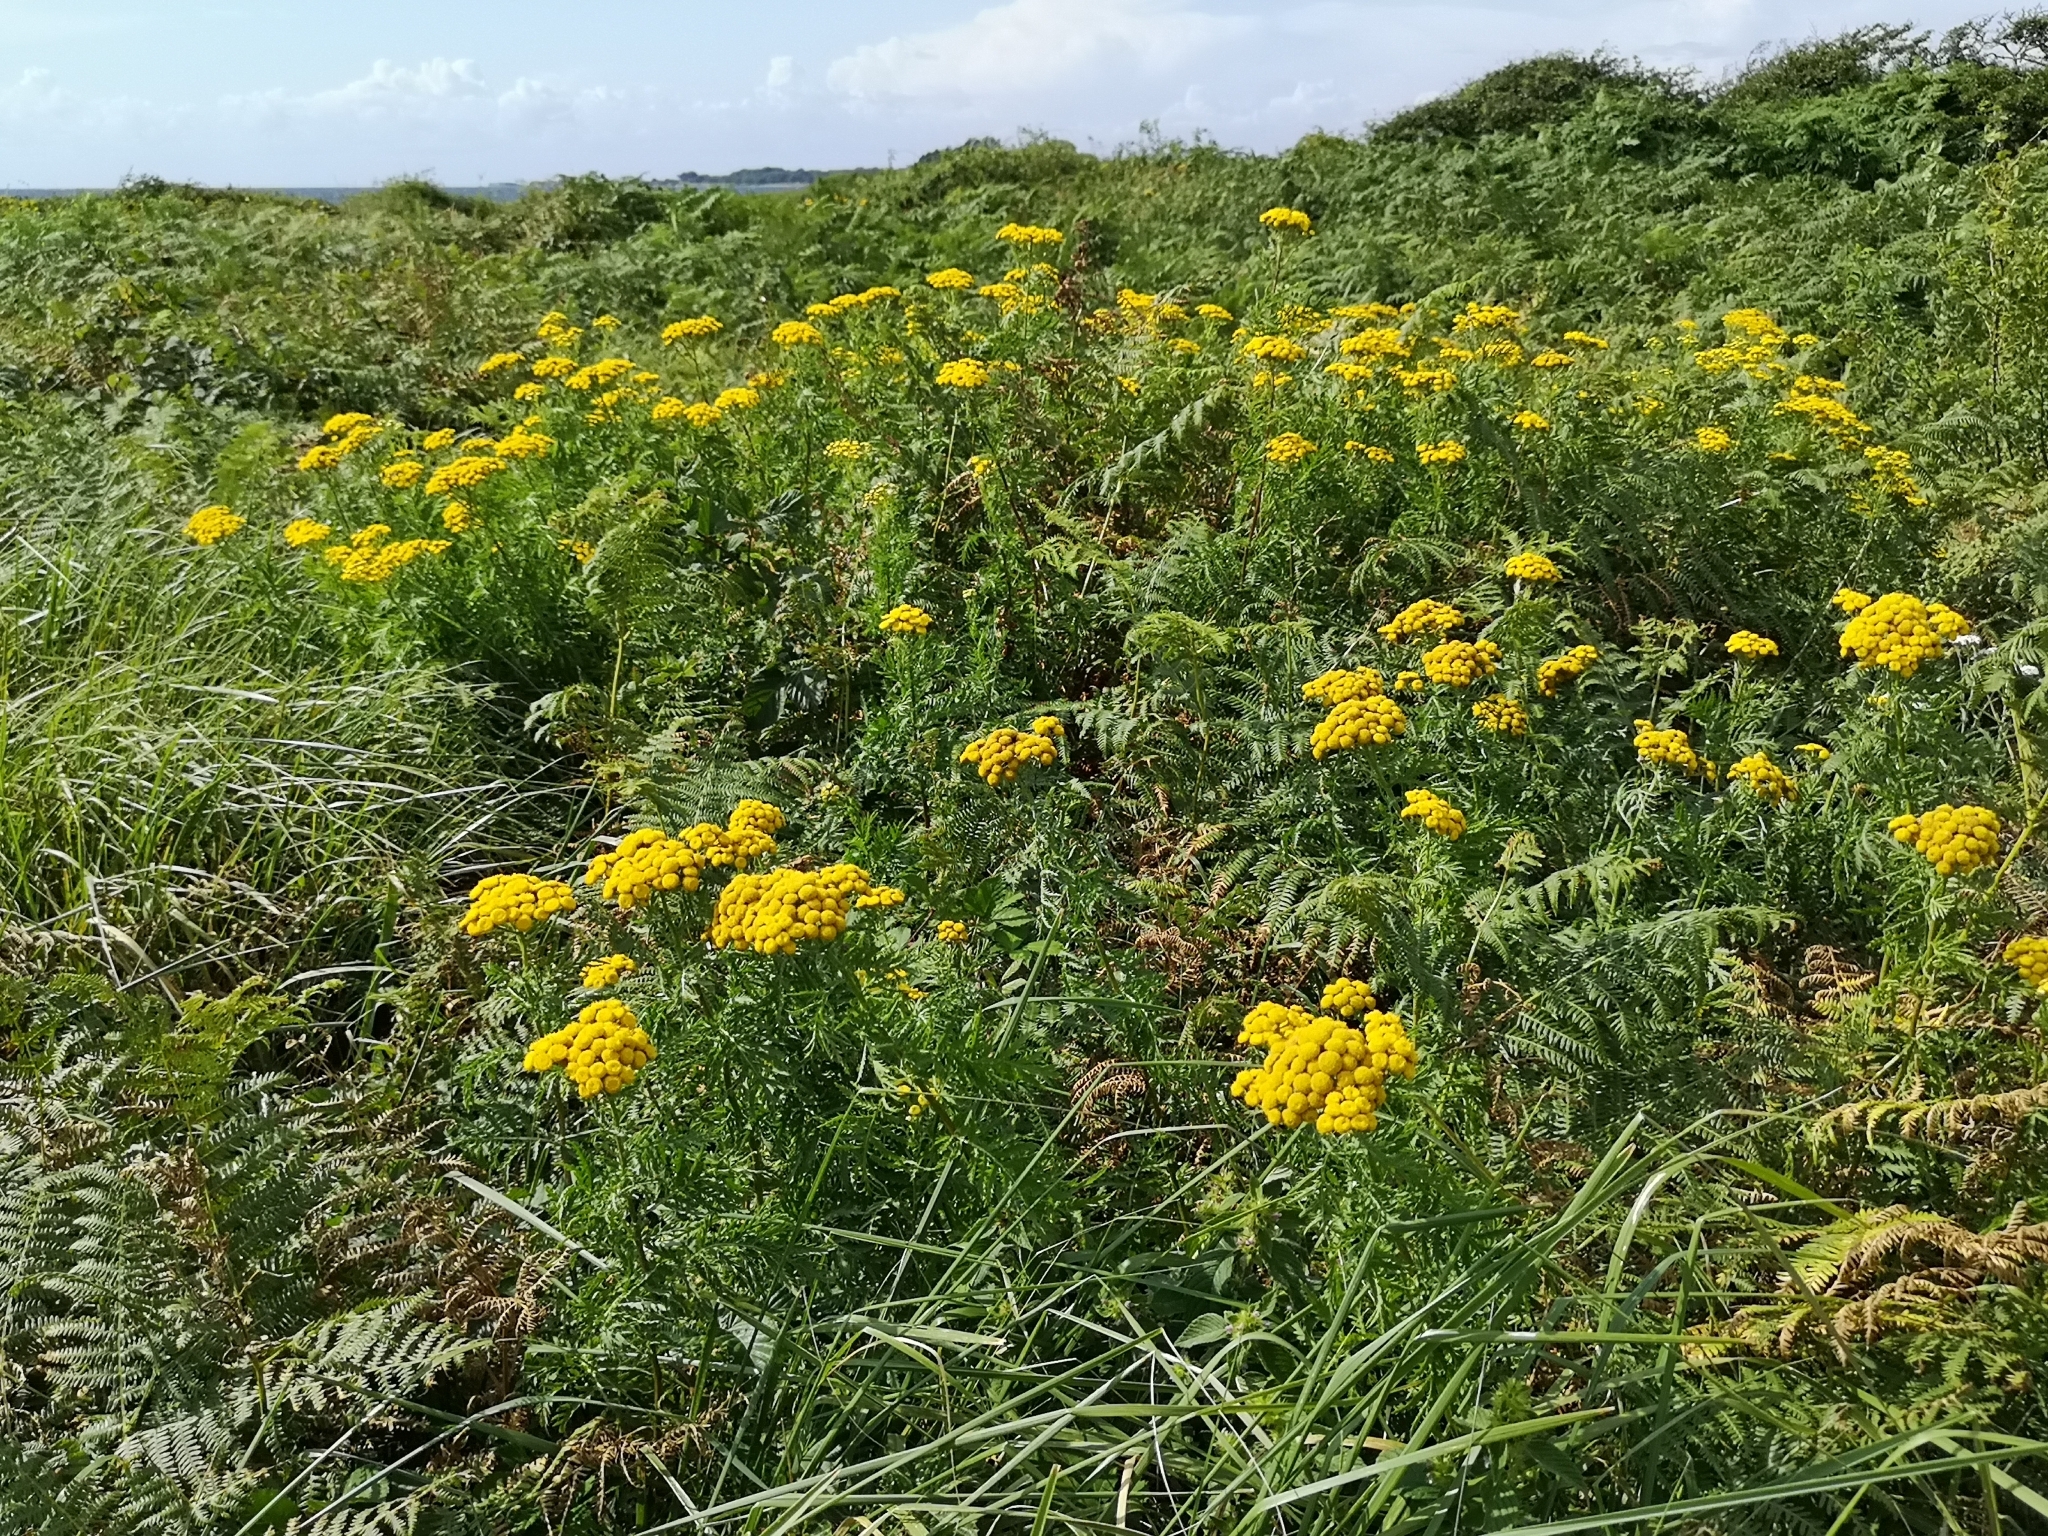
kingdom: Plantae
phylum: Tracheophyta
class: Magnoliopsida
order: Asterales
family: Asteraceae
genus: Tanacetum
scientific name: Tanacetum vulgare
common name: Common tansy
